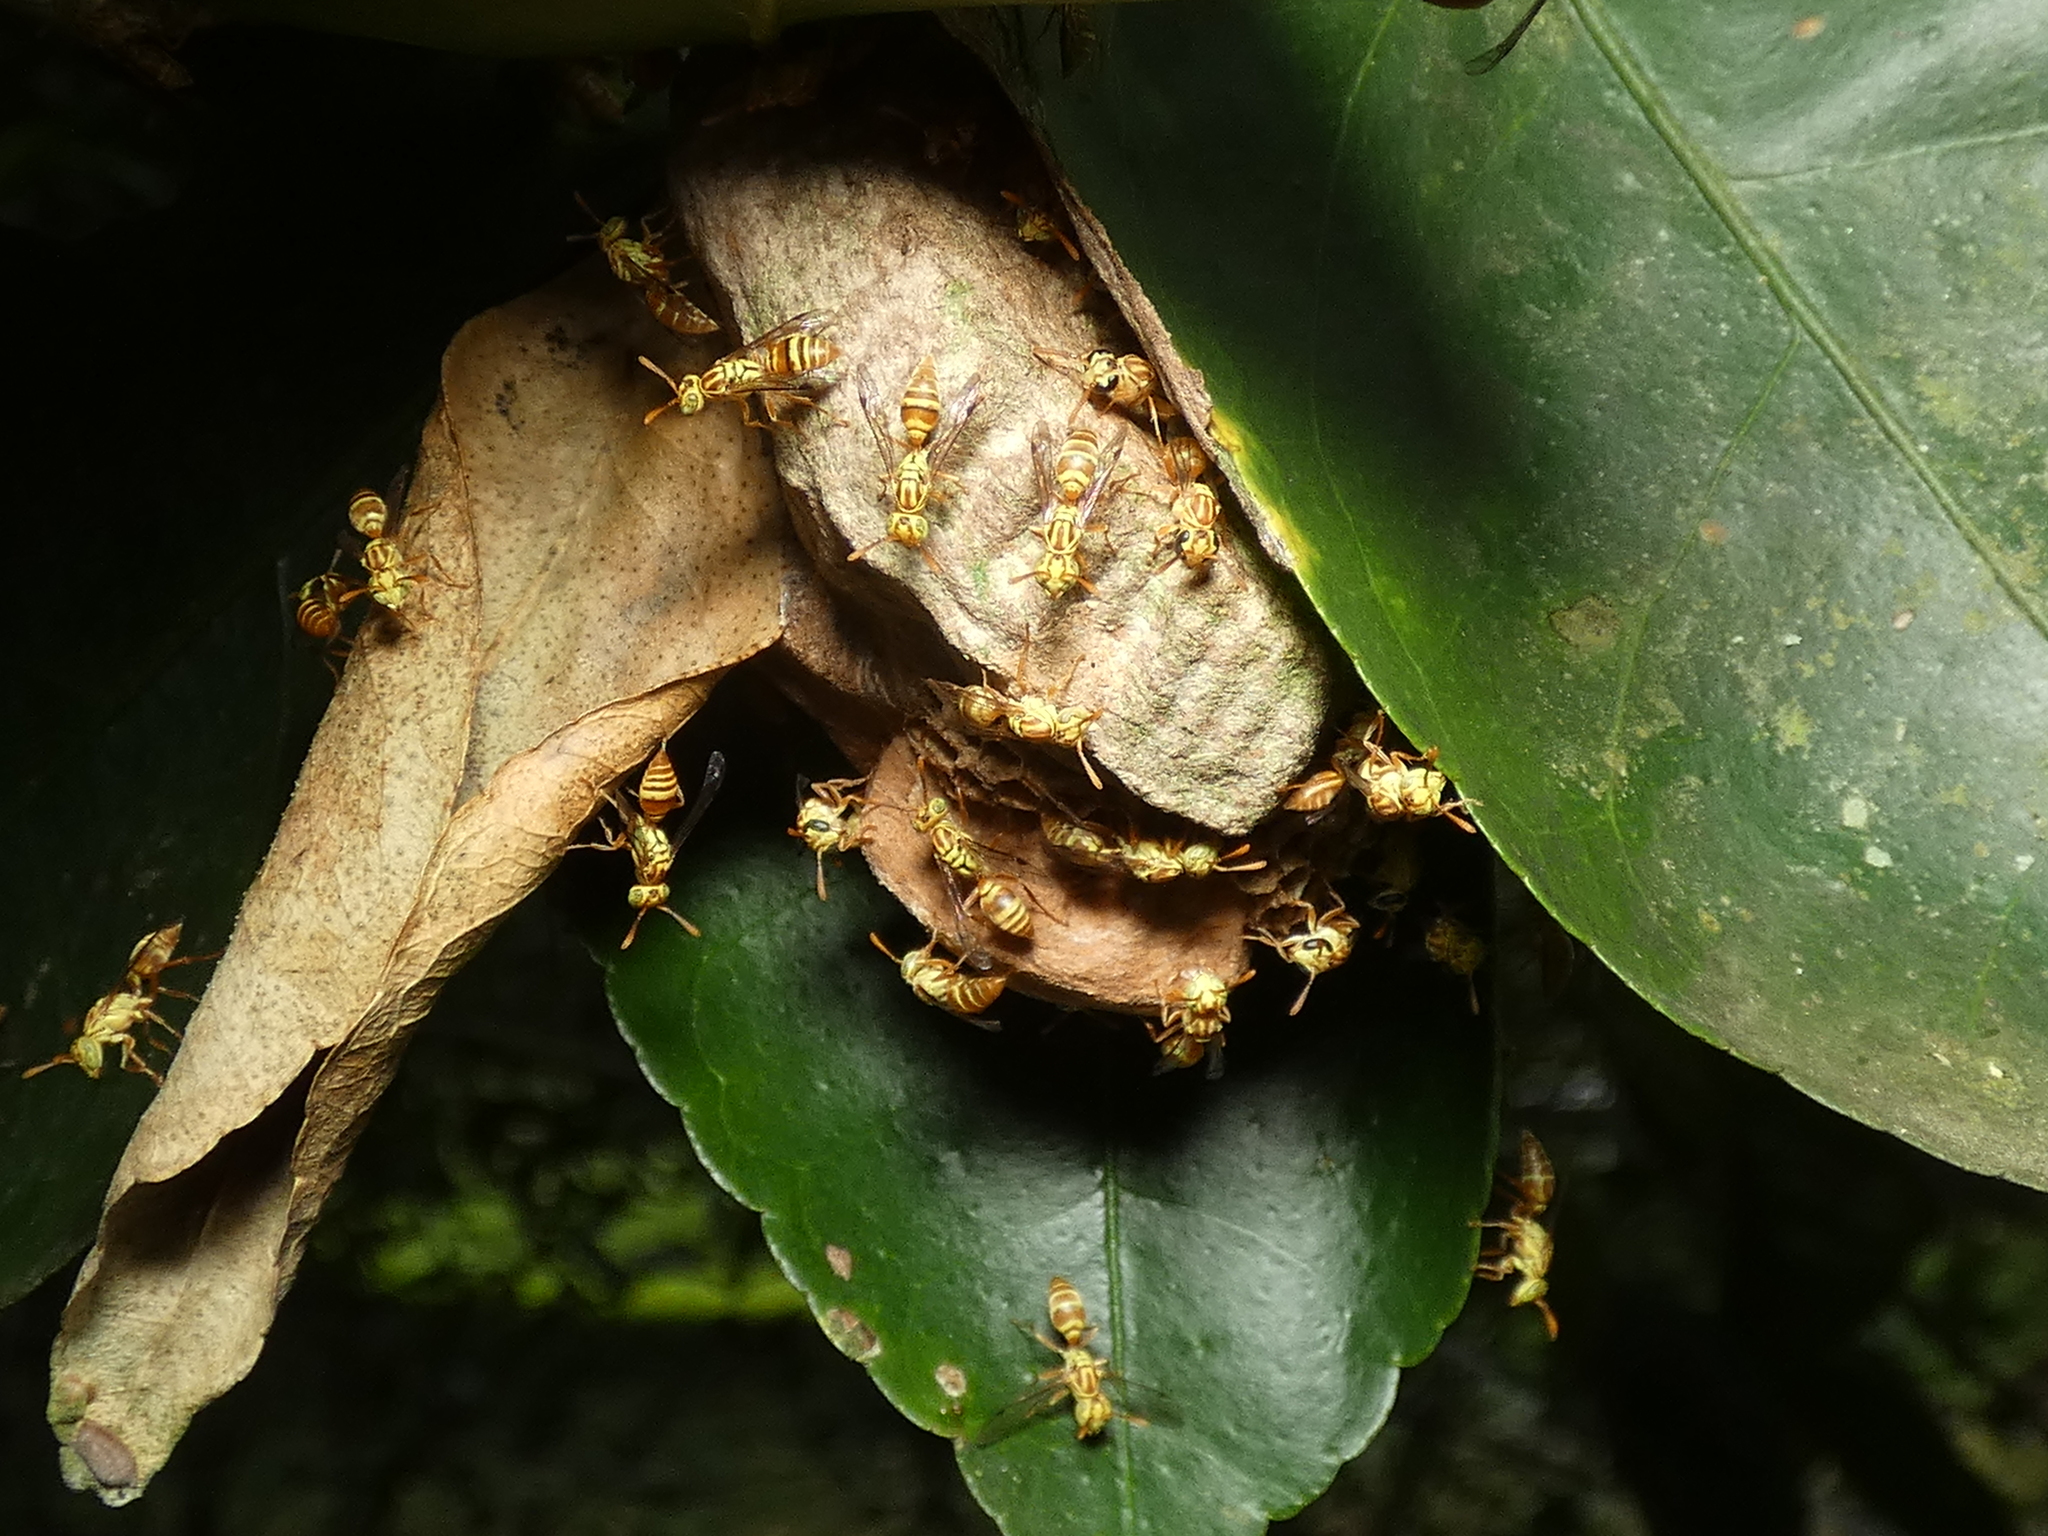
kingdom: Animalia
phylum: Arthropoda
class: Insecta
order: Hymenoptera
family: Vespidae
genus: Protopolybia
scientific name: Protopolybia potiguara
